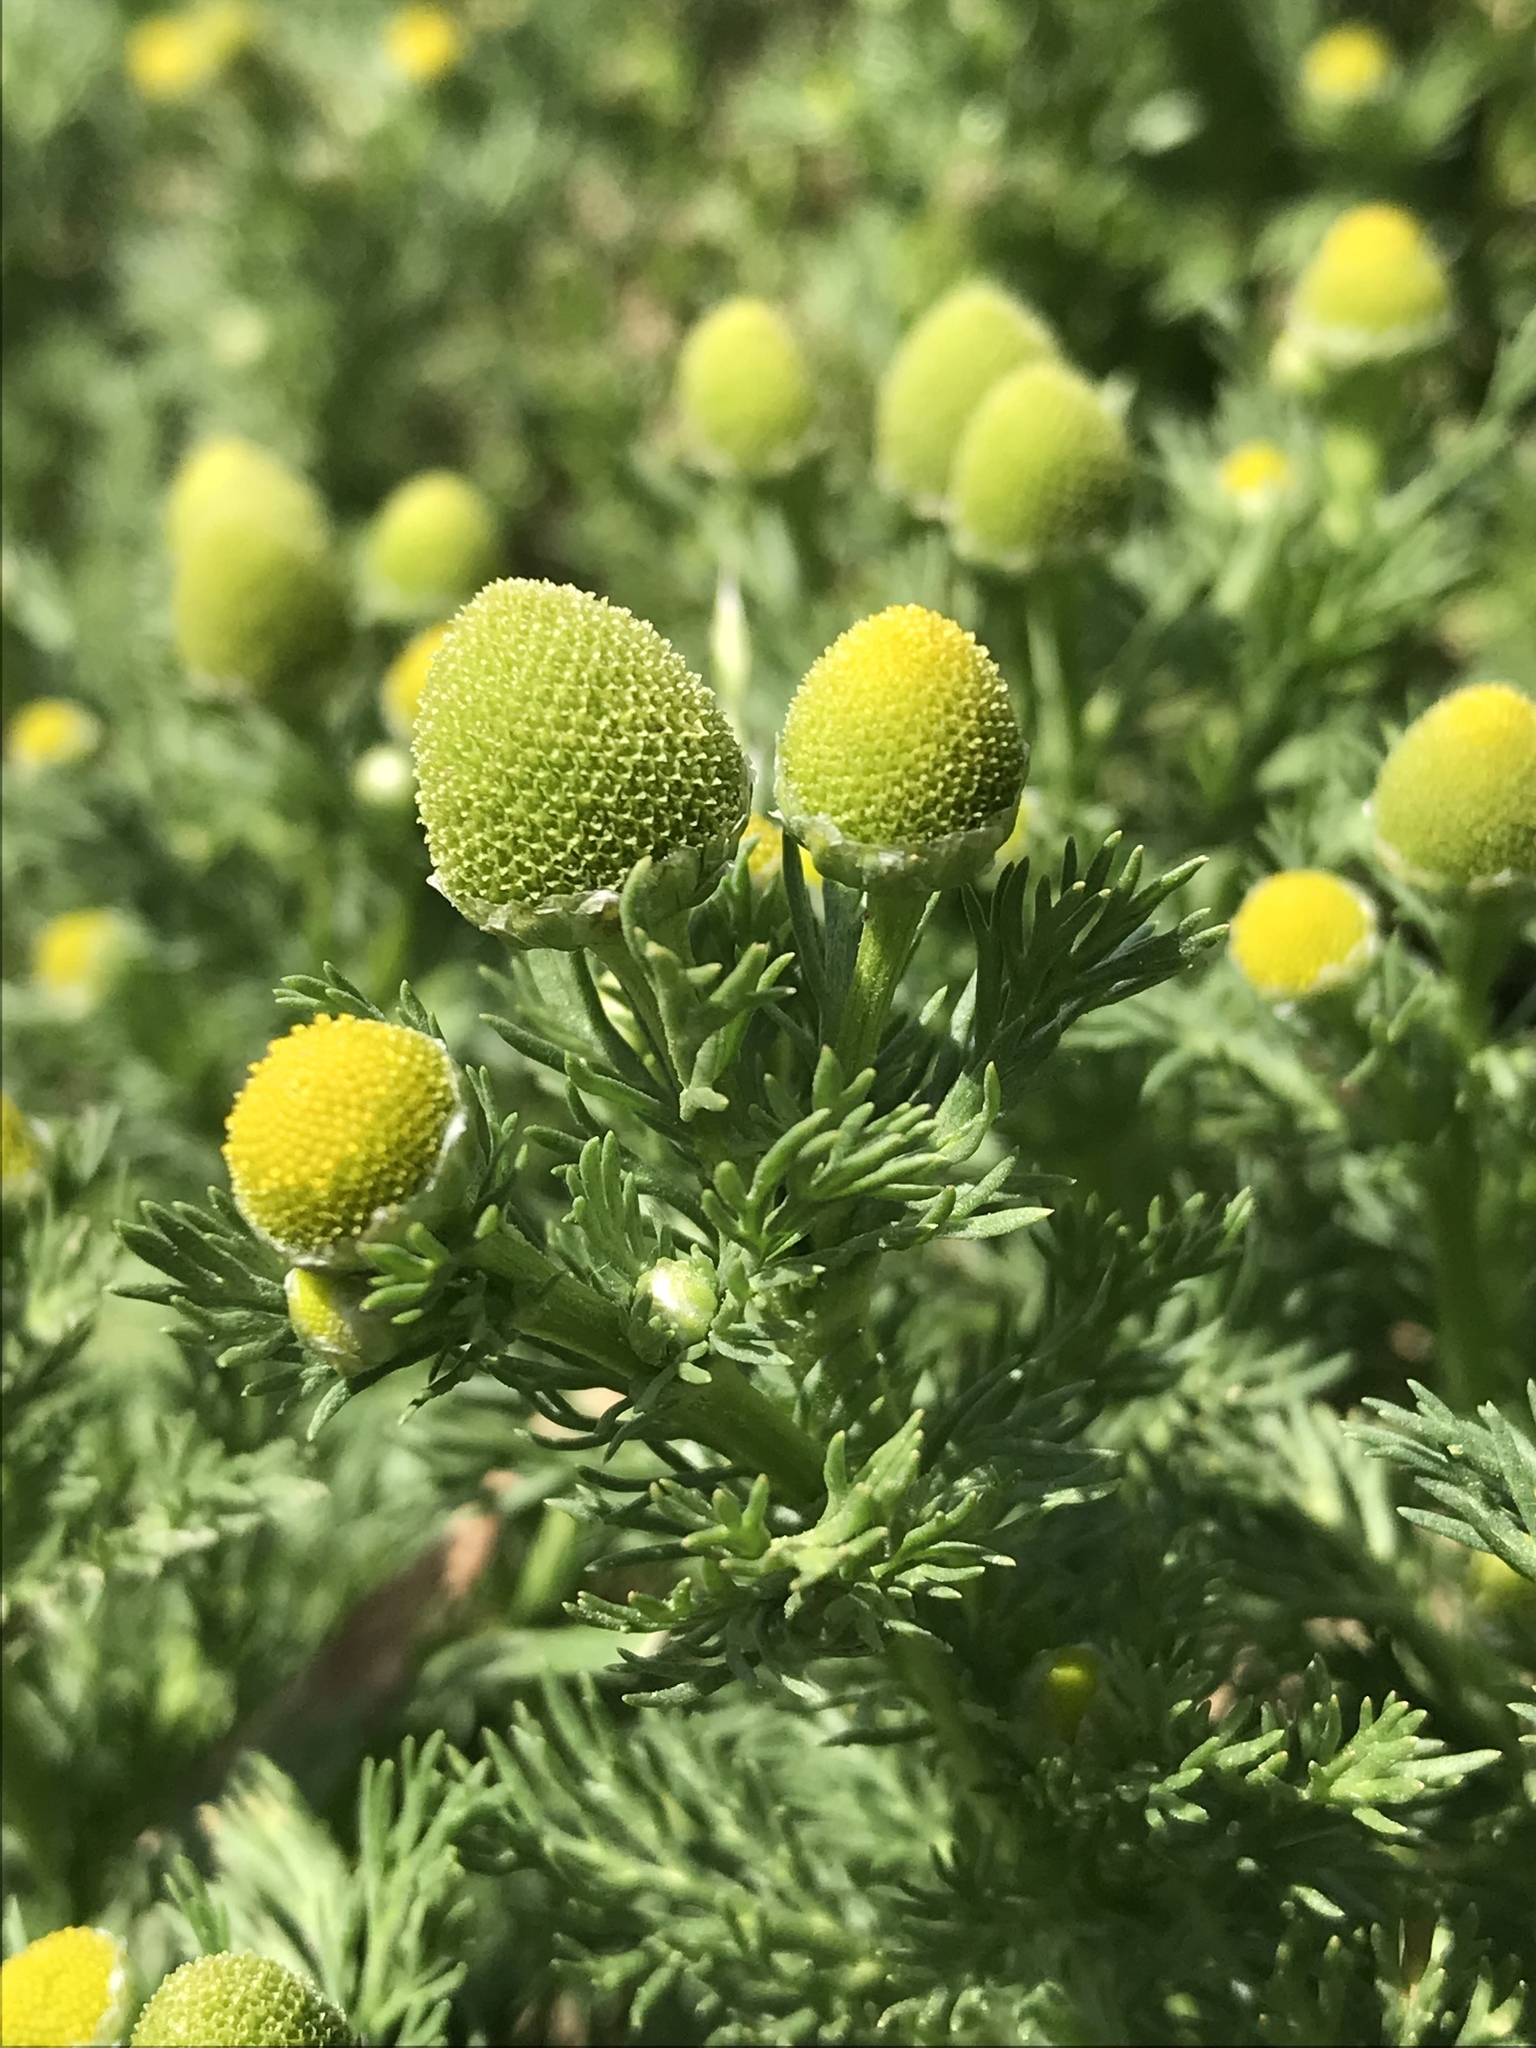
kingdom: Plantae
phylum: Tracheophyta
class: Magnoliopsida
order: Asterales
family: Asteraceae
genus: Matricaria
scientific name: Matricaria discoidea
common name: Disc mayweed
